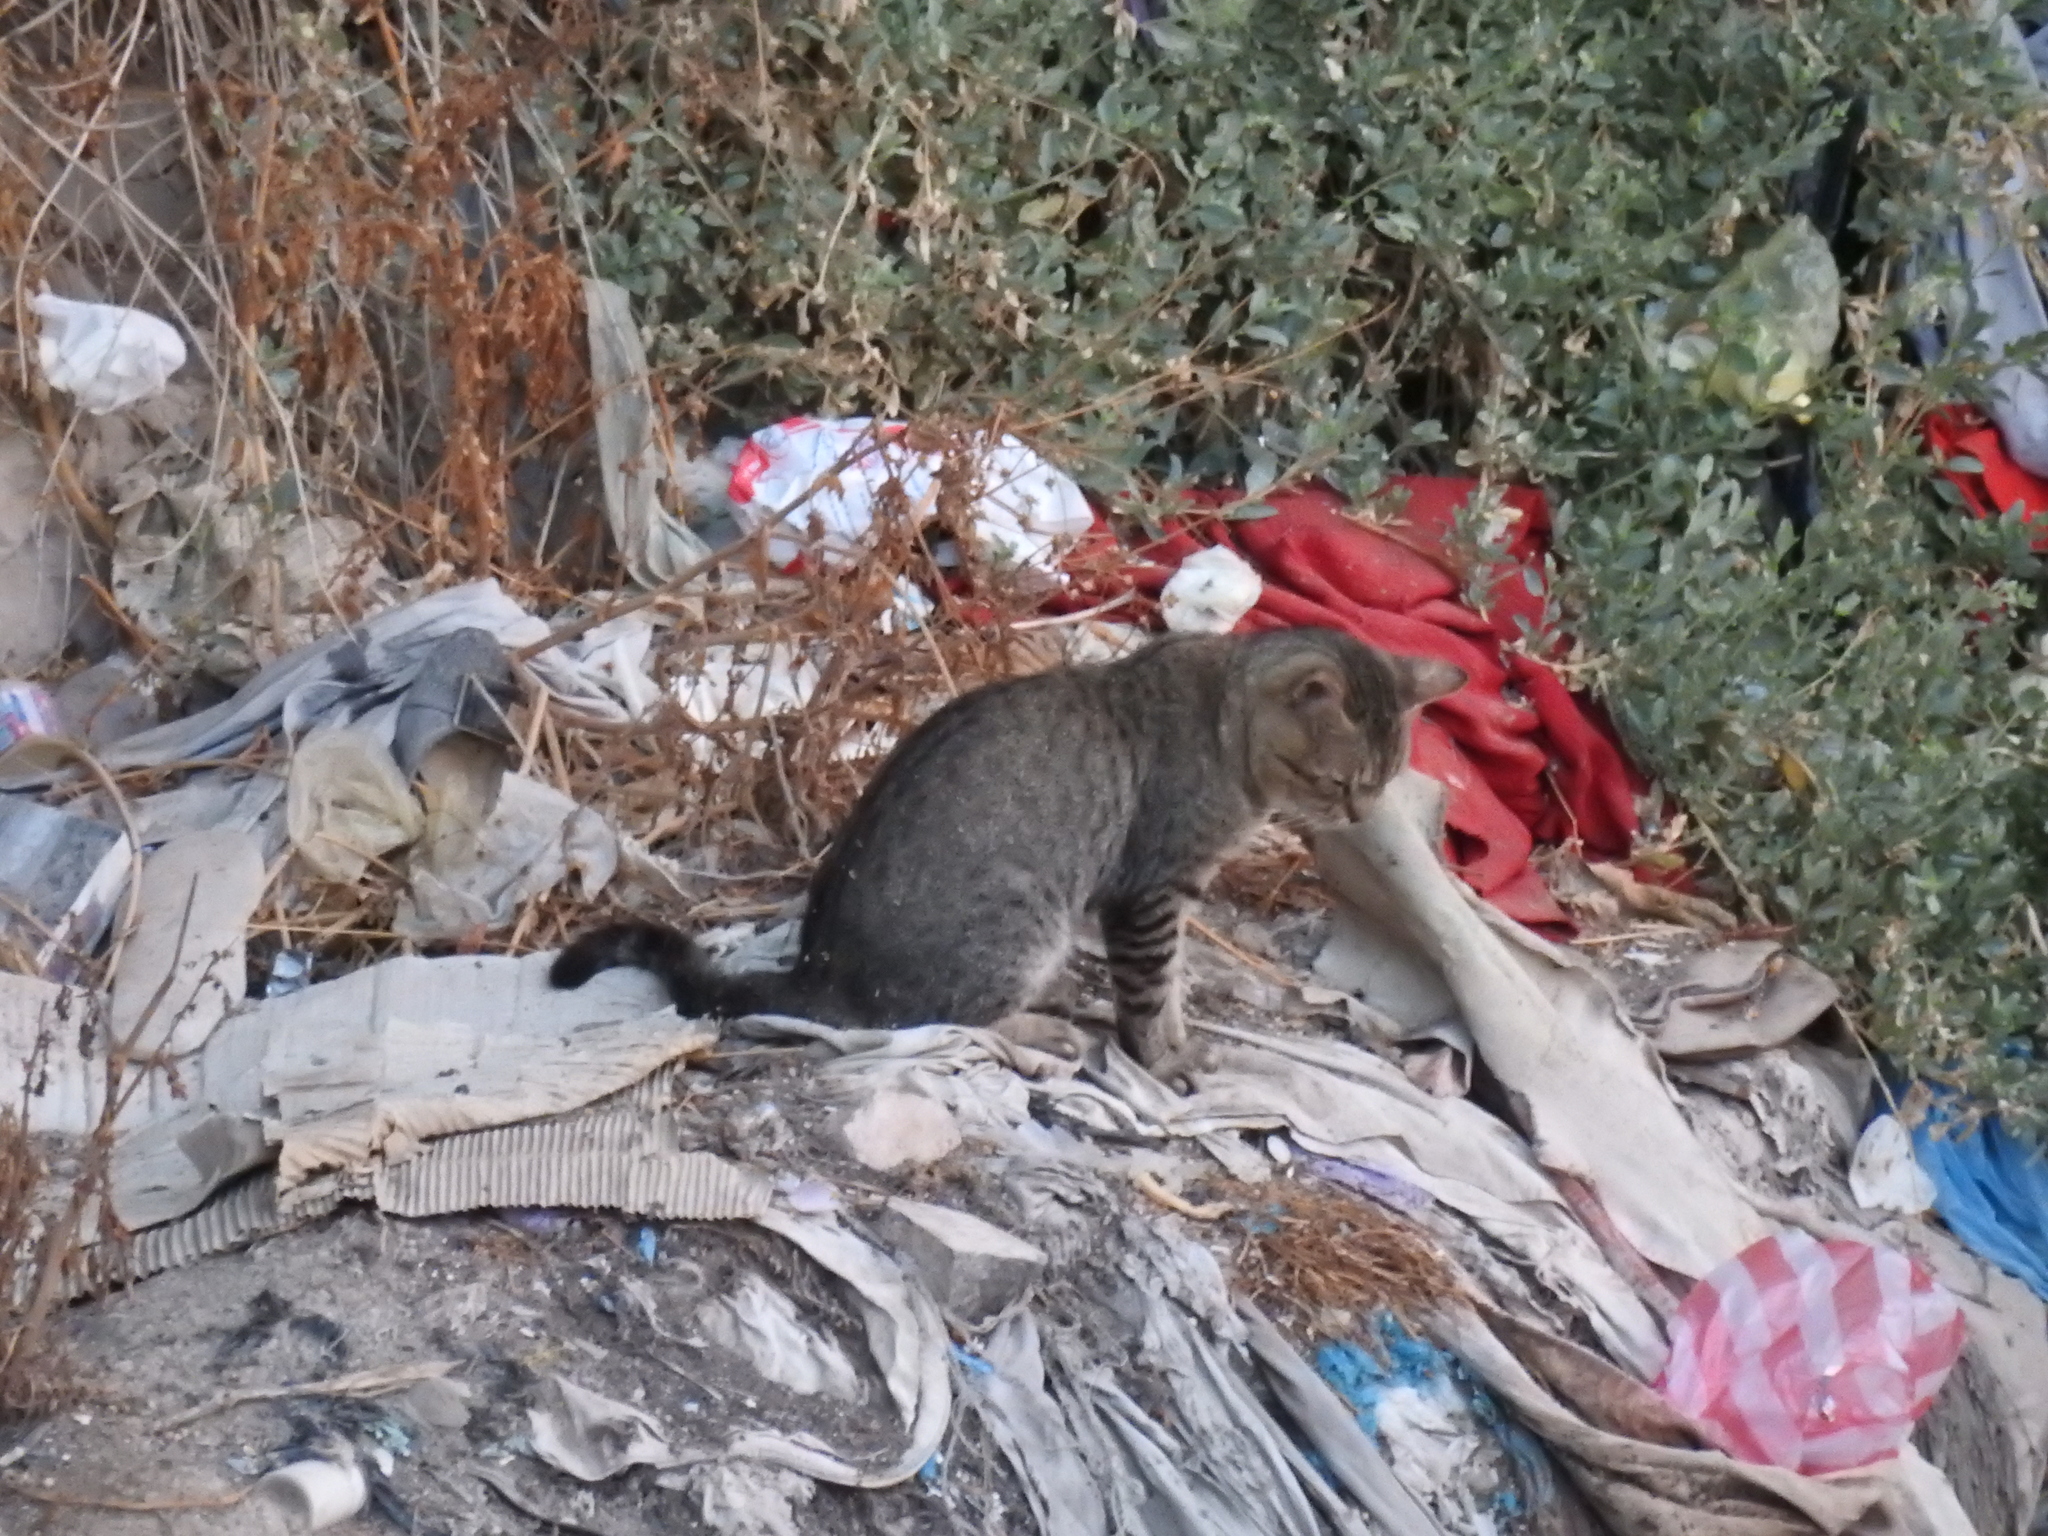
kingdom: Animalia
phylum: Chordata
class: Mammalia
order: Carnivora
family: Felidae
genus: Felis
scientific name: Felis catus
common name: Domestic cat
